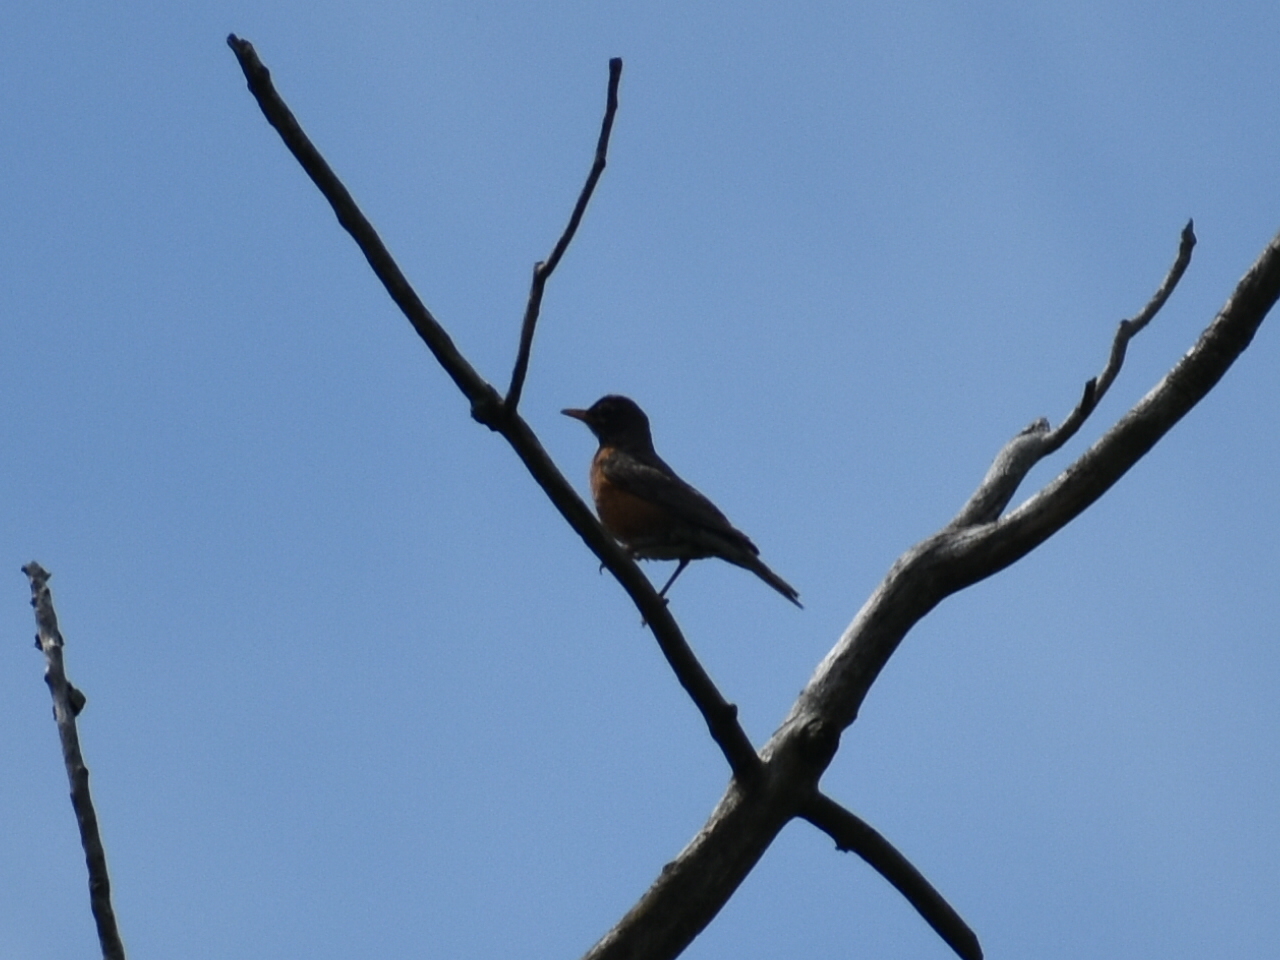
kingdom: Animalia
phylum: Chordata
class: Aves
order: Passeriformes
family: Turdidae
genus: Turdus
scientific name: Turdus migratorius
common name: American robin
